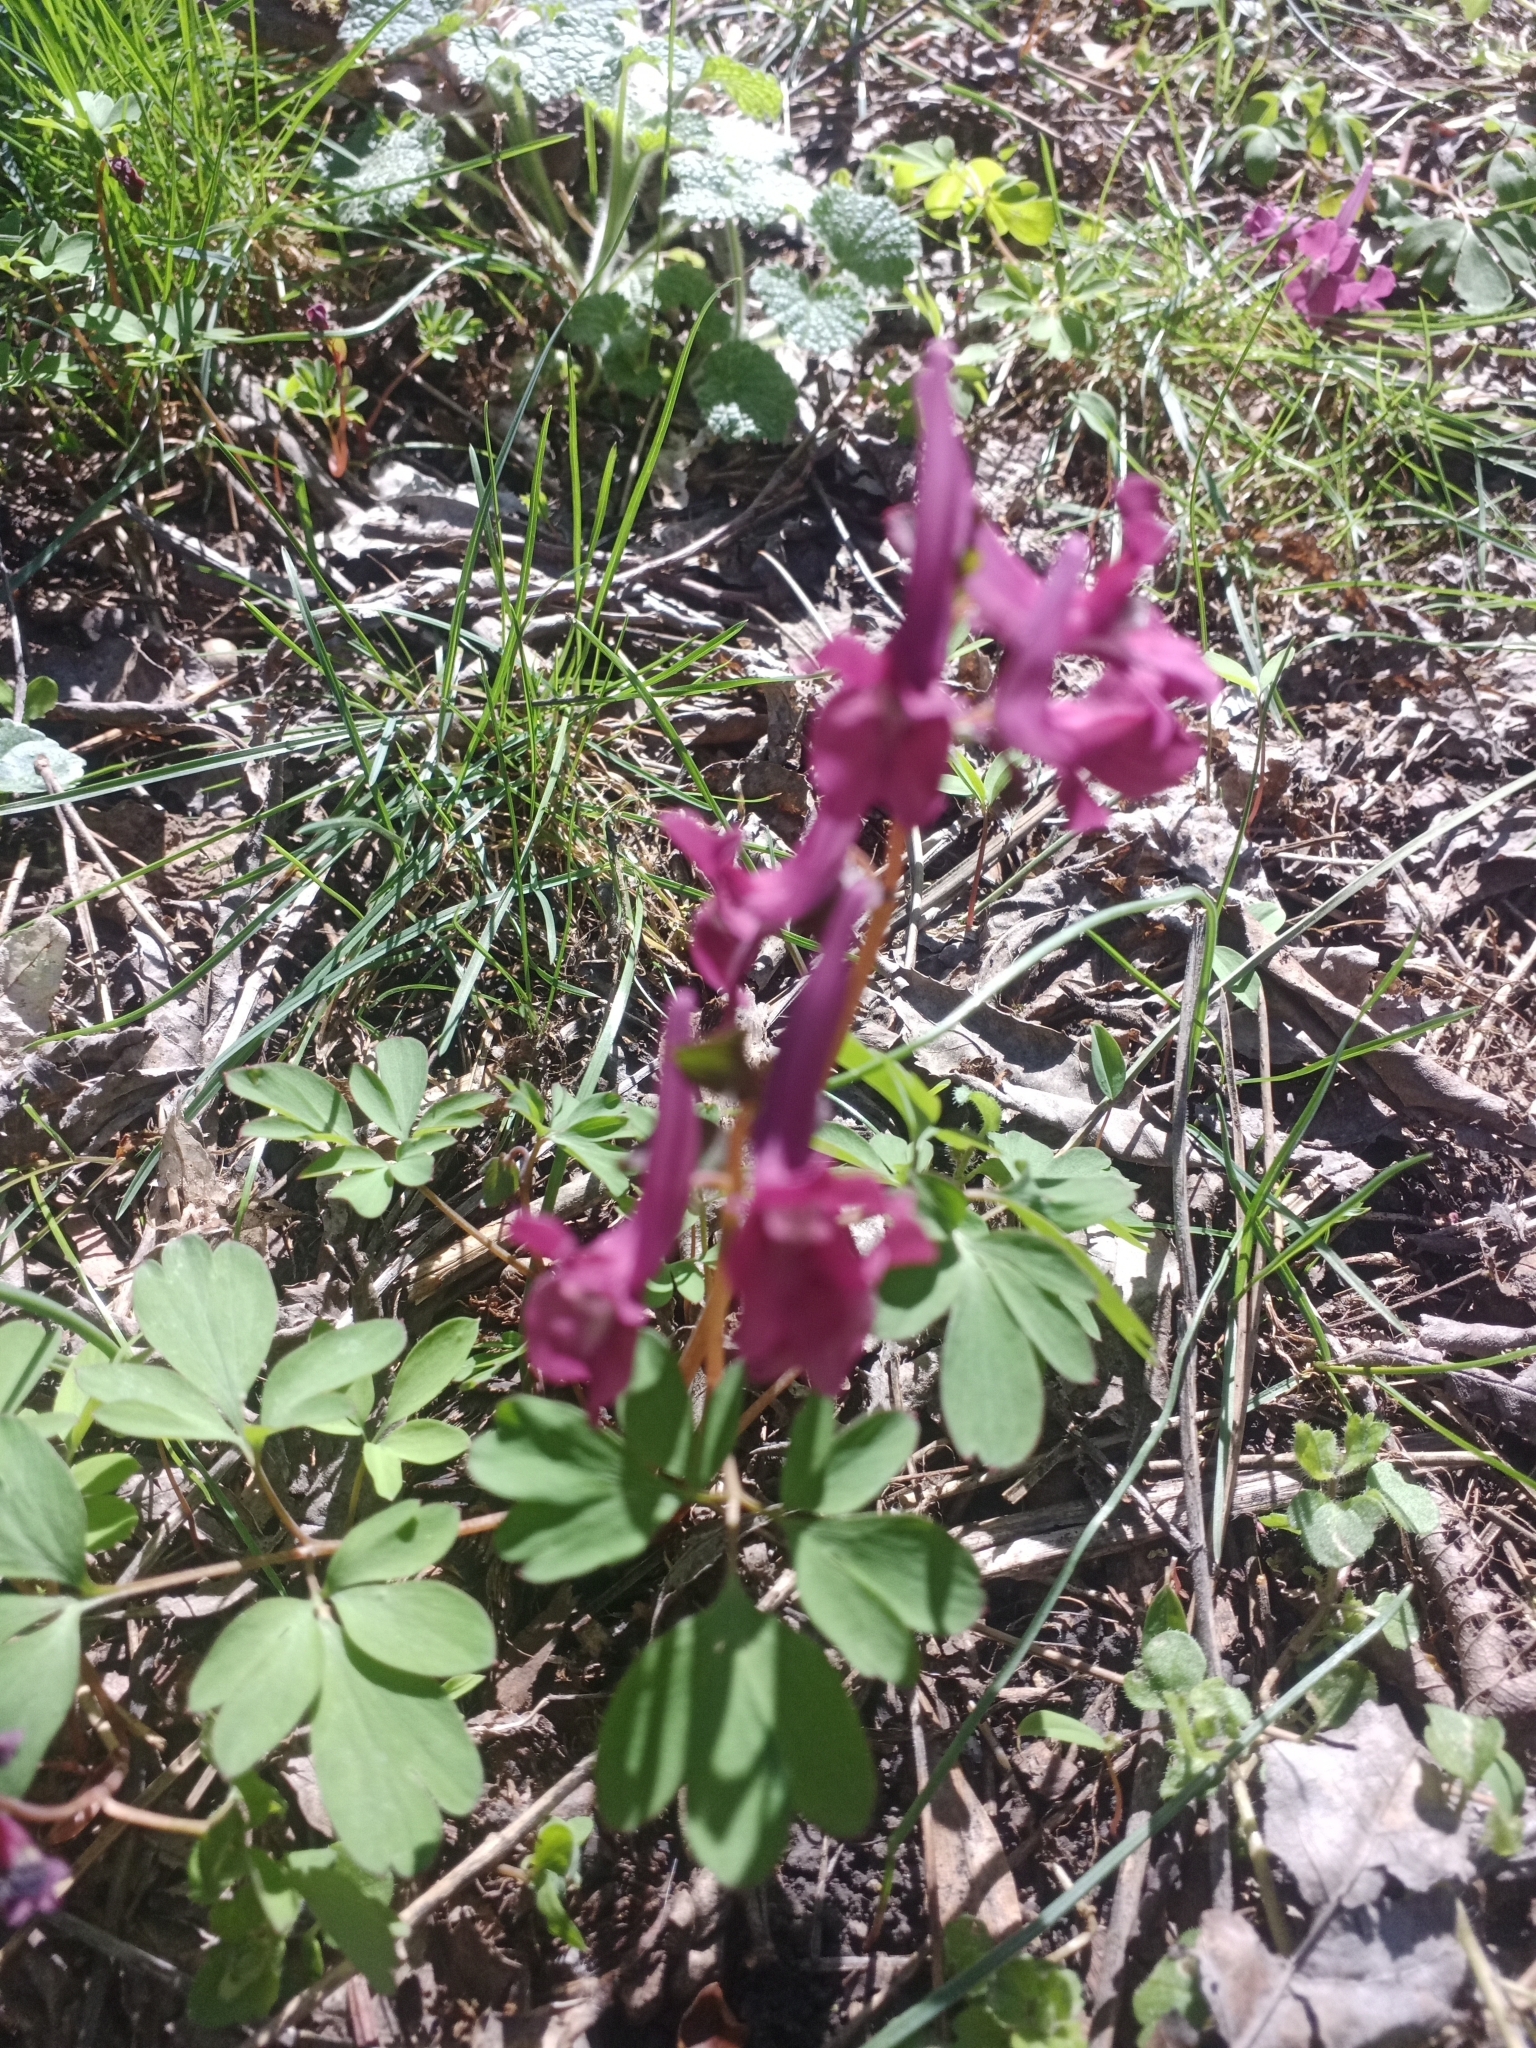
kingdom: Plantae
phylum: Tracheophyta
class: Magnoliopsida
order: Ranunculales
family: Papaveraceae
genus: Corydalis
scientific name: Corydalis caucasica
